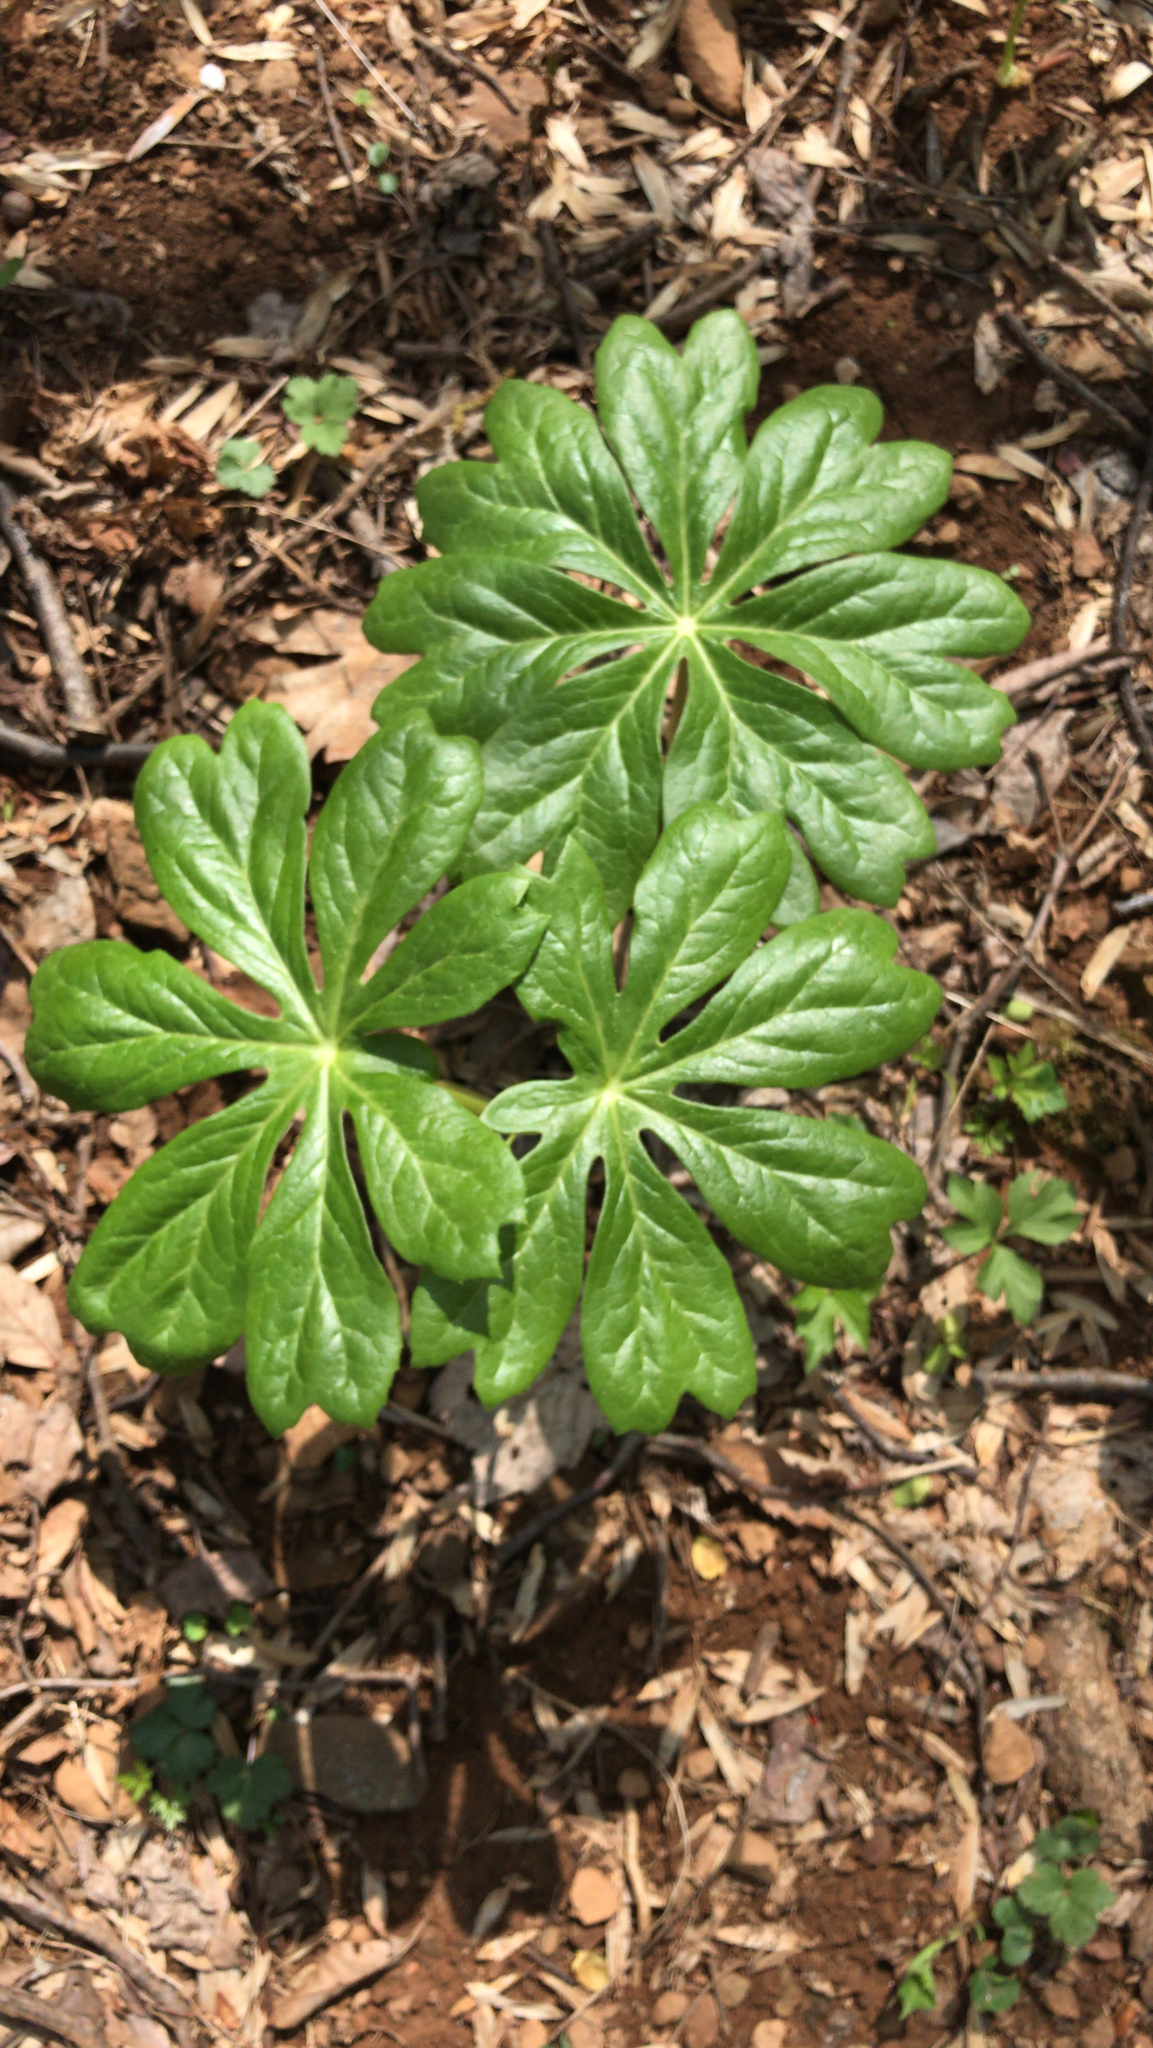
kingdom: Plantae
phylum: Tracheophyta
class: Magnoliopsida
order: Ranunculales
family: Berberidaceae
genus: Podophyllum
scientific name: Podophyllum peltatum
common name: Wild mandrake
